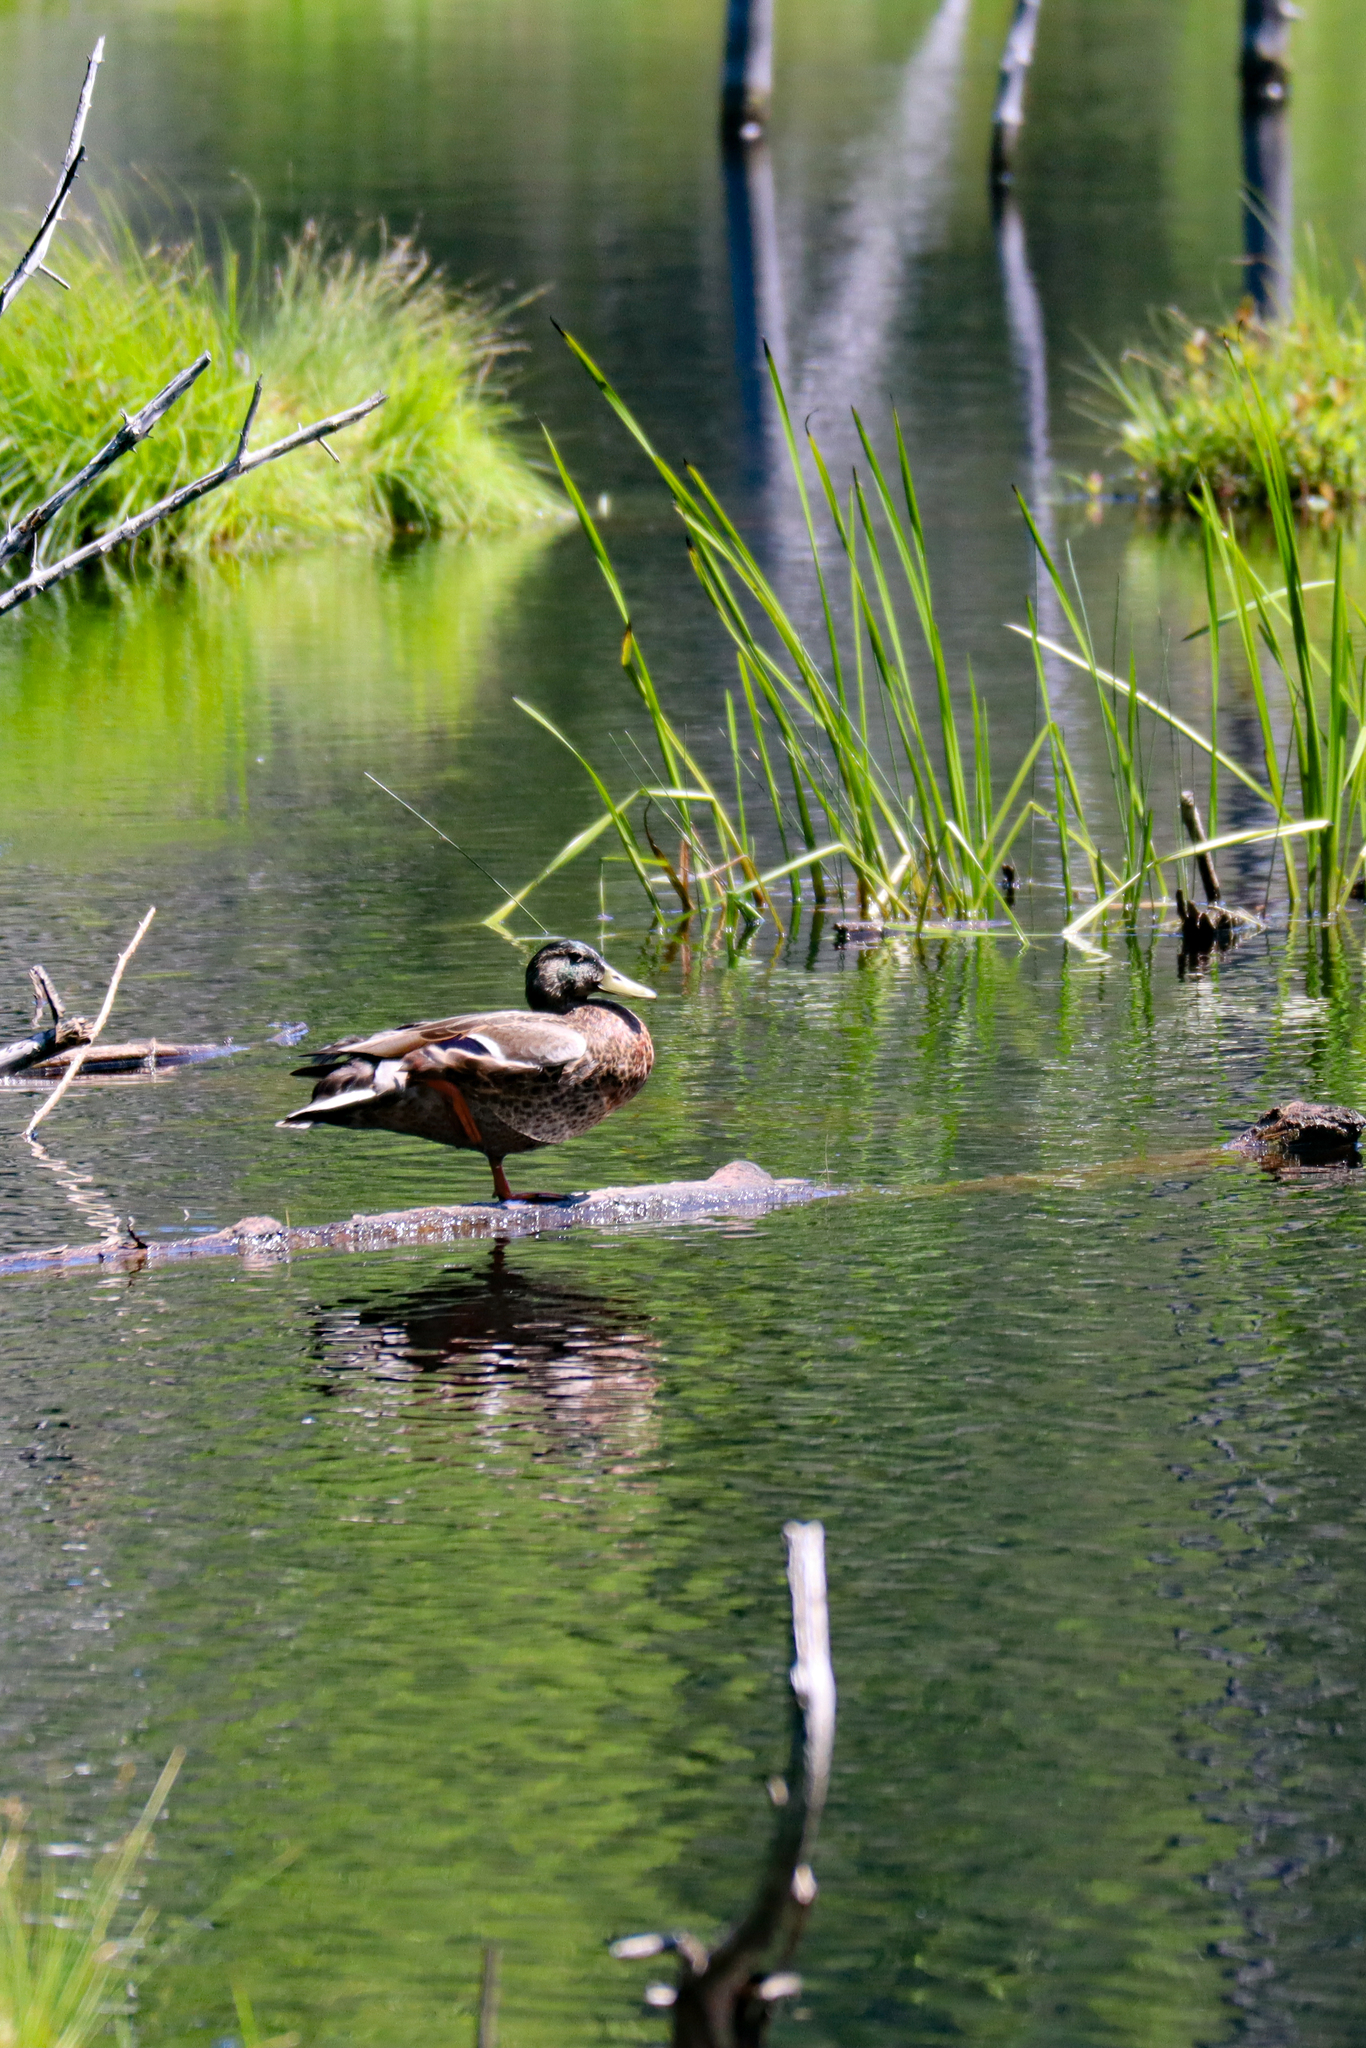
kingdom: Animalia
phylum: Chordata
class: Aves
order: Anseriformes
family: Anatidae
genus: Anas
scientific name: Anas platyrhynchos
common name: Mallard
